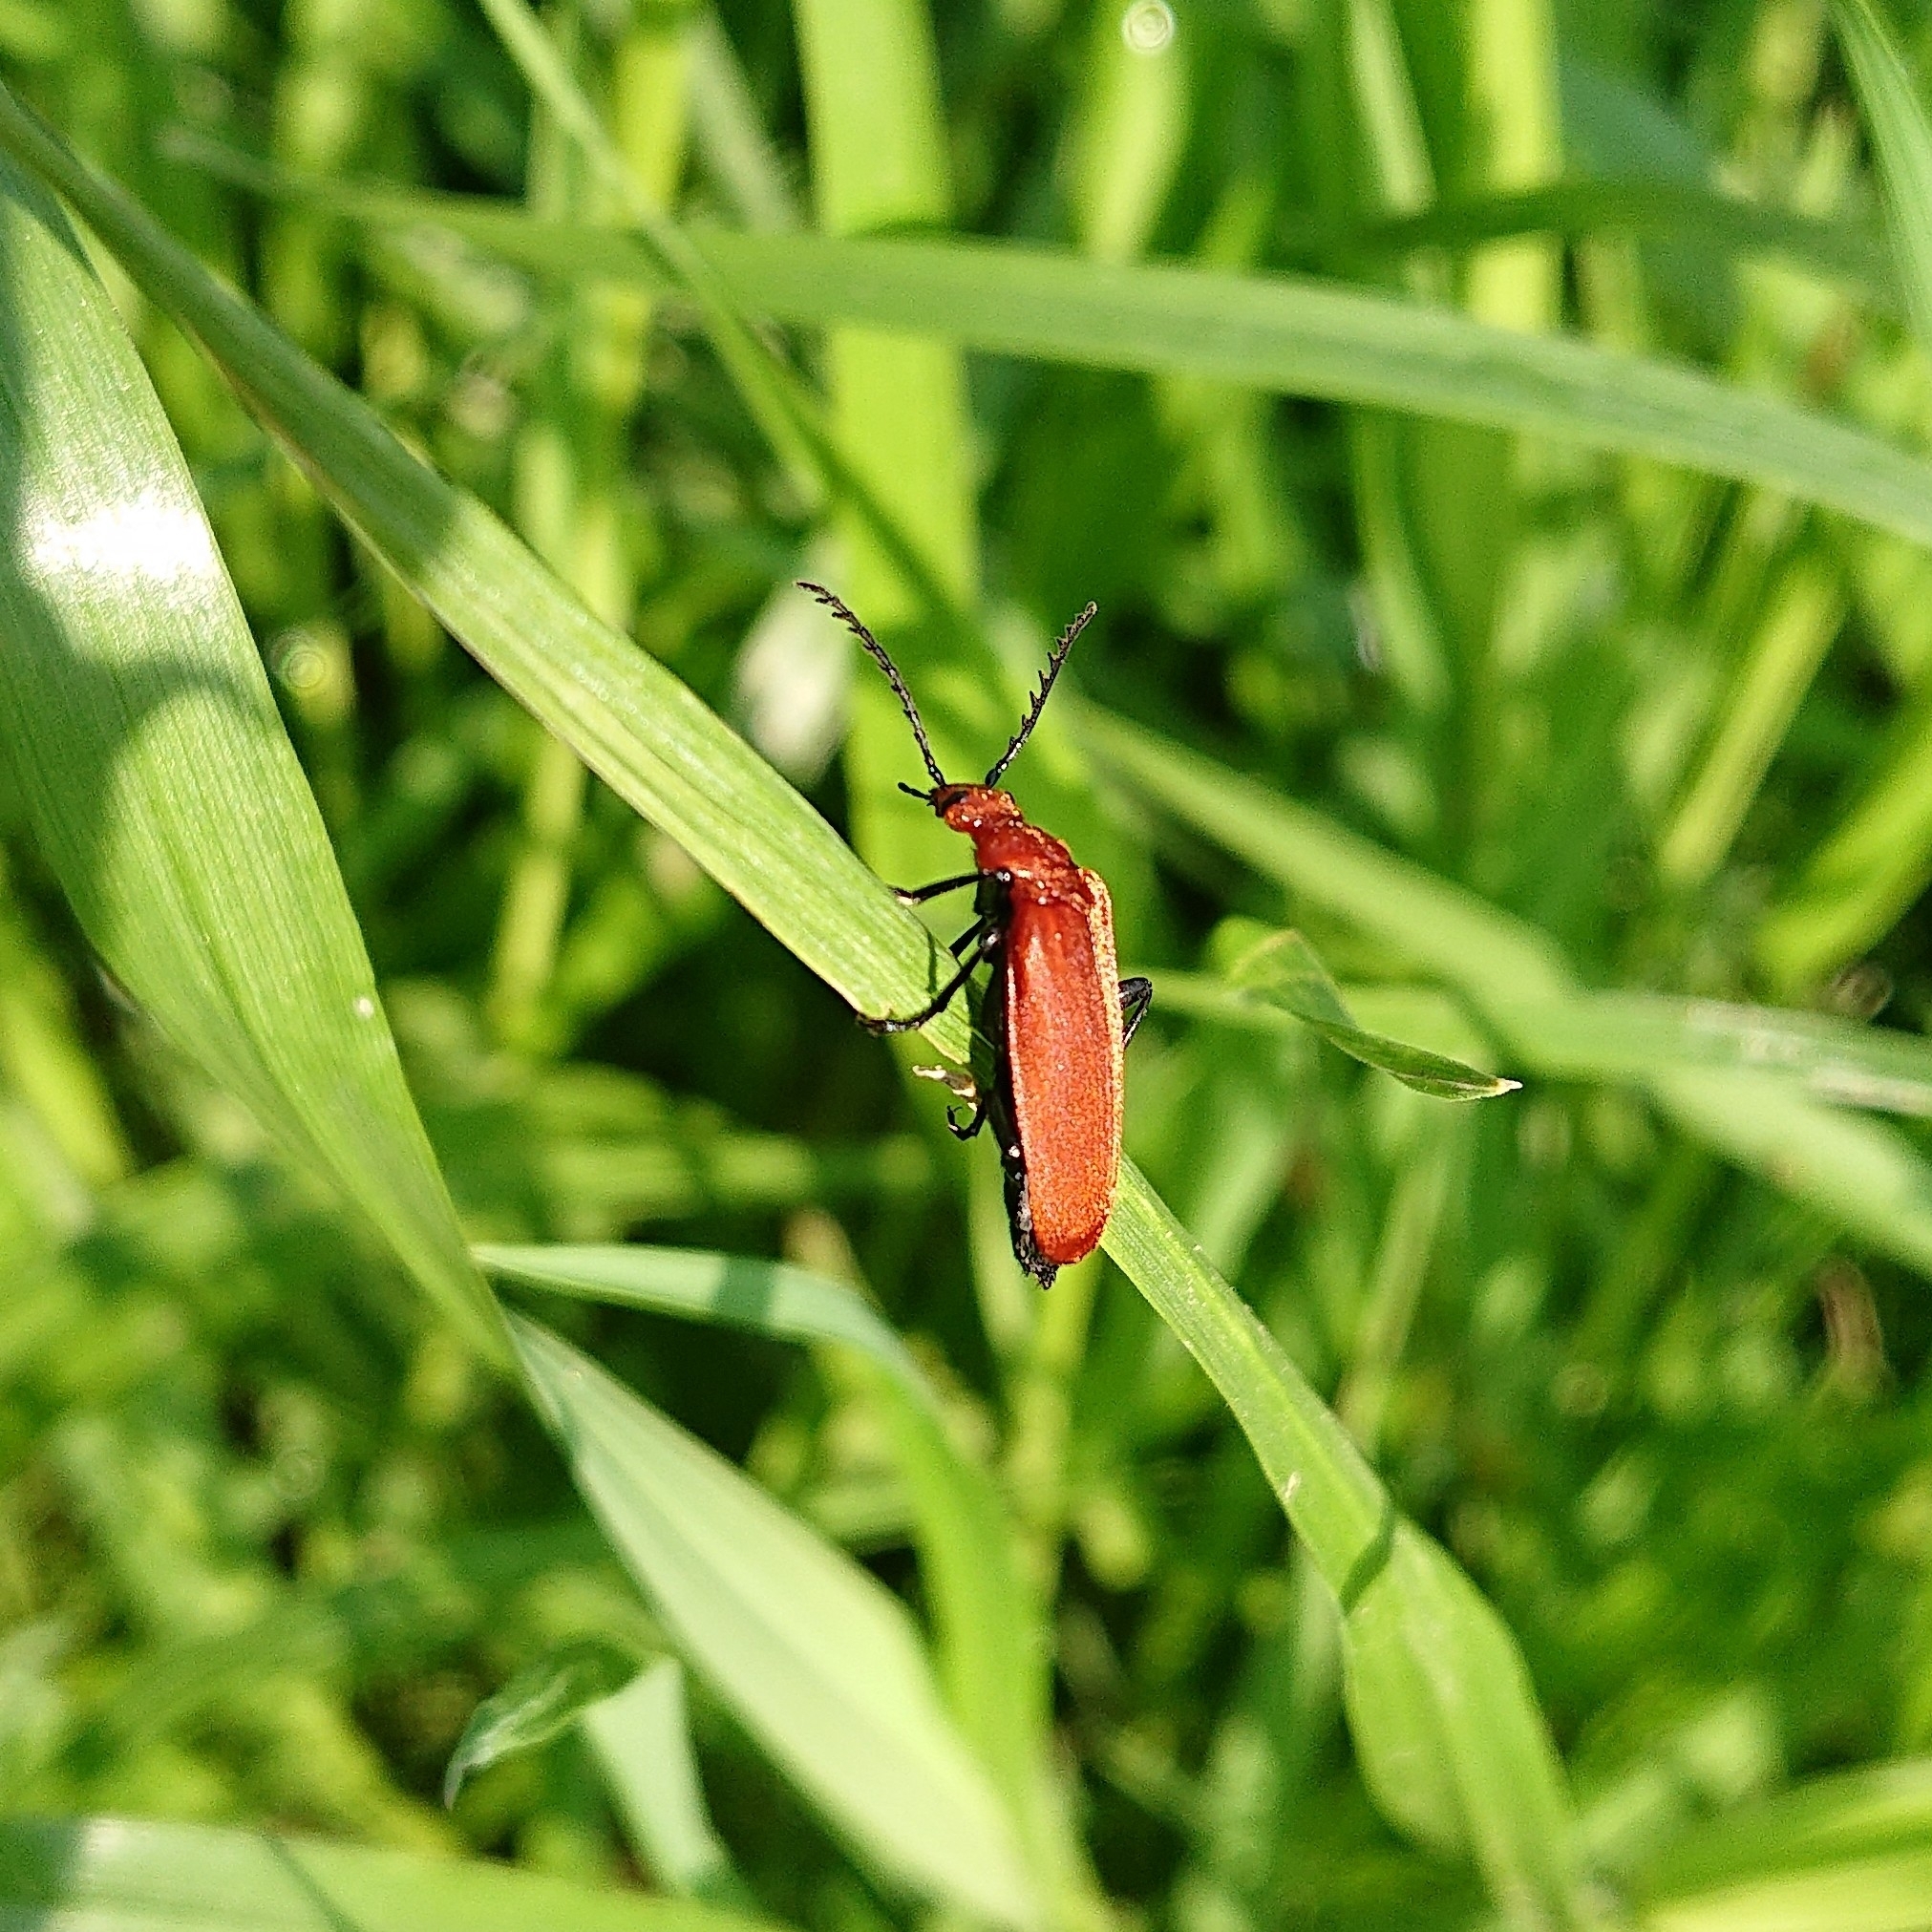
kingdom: Animalia
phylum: Arthropoda
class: Insecta
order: Coleoptera
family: Pyrochroidae
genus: Pyrochroa
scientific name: Pyrochroa serraticornis
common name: Red-headed cardinal beetle
